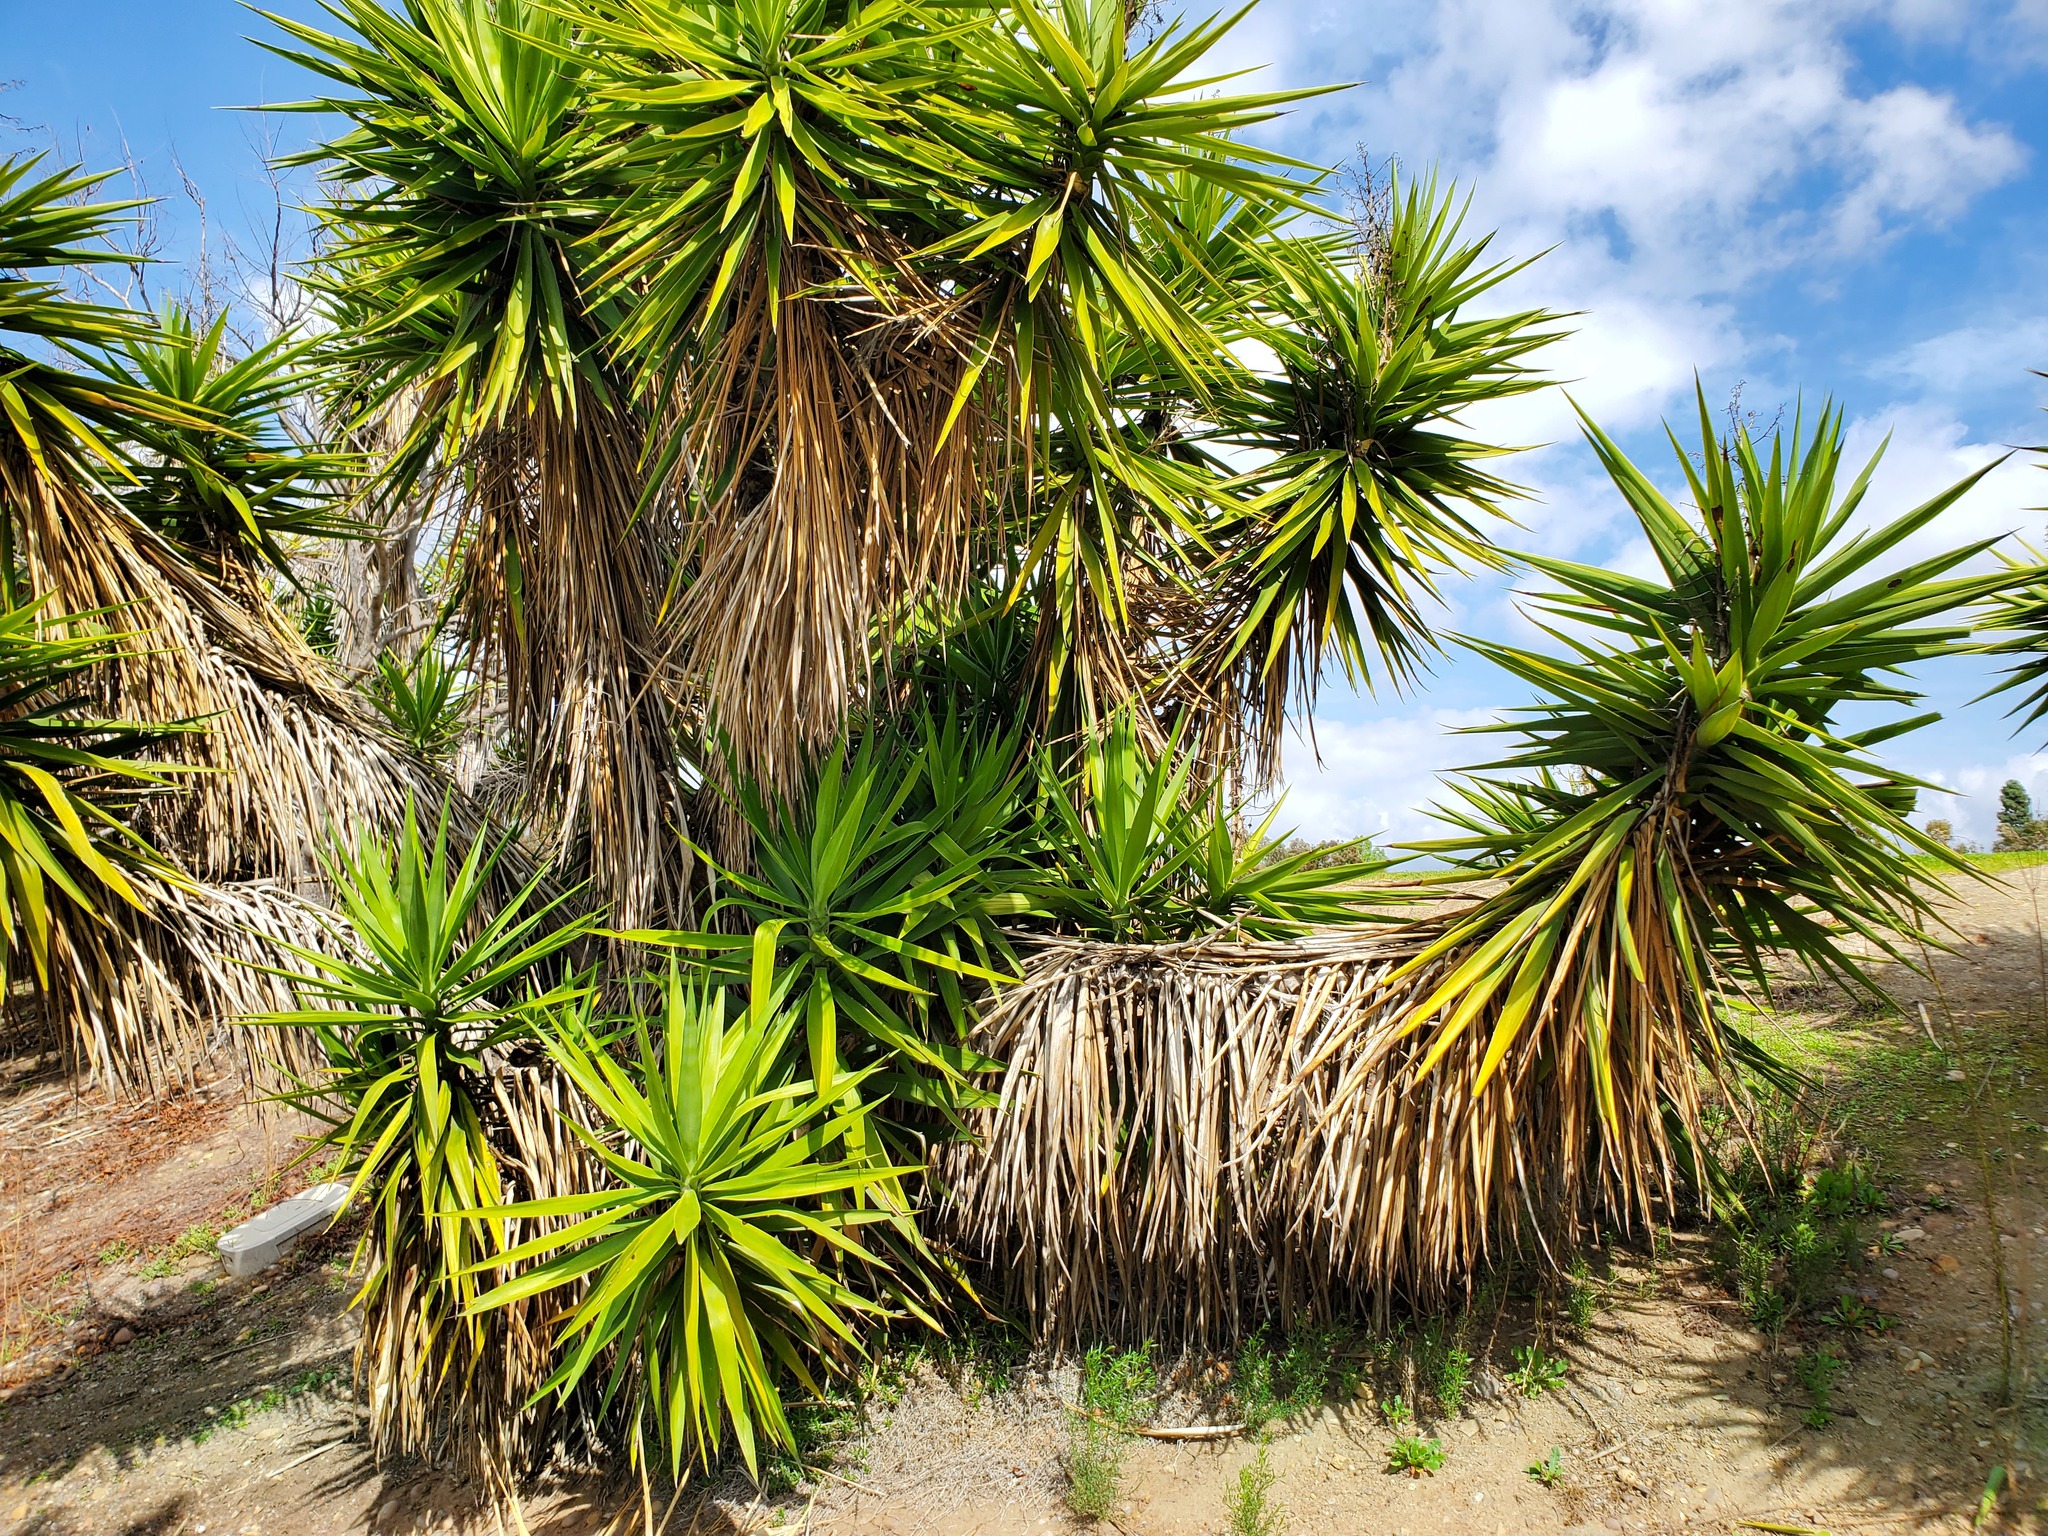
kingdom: Plantae
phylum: Tracheophyta
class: Liliopsida
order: Asparagales
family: Asparagaceae
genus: Yucca
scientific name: Yucca gigantea
